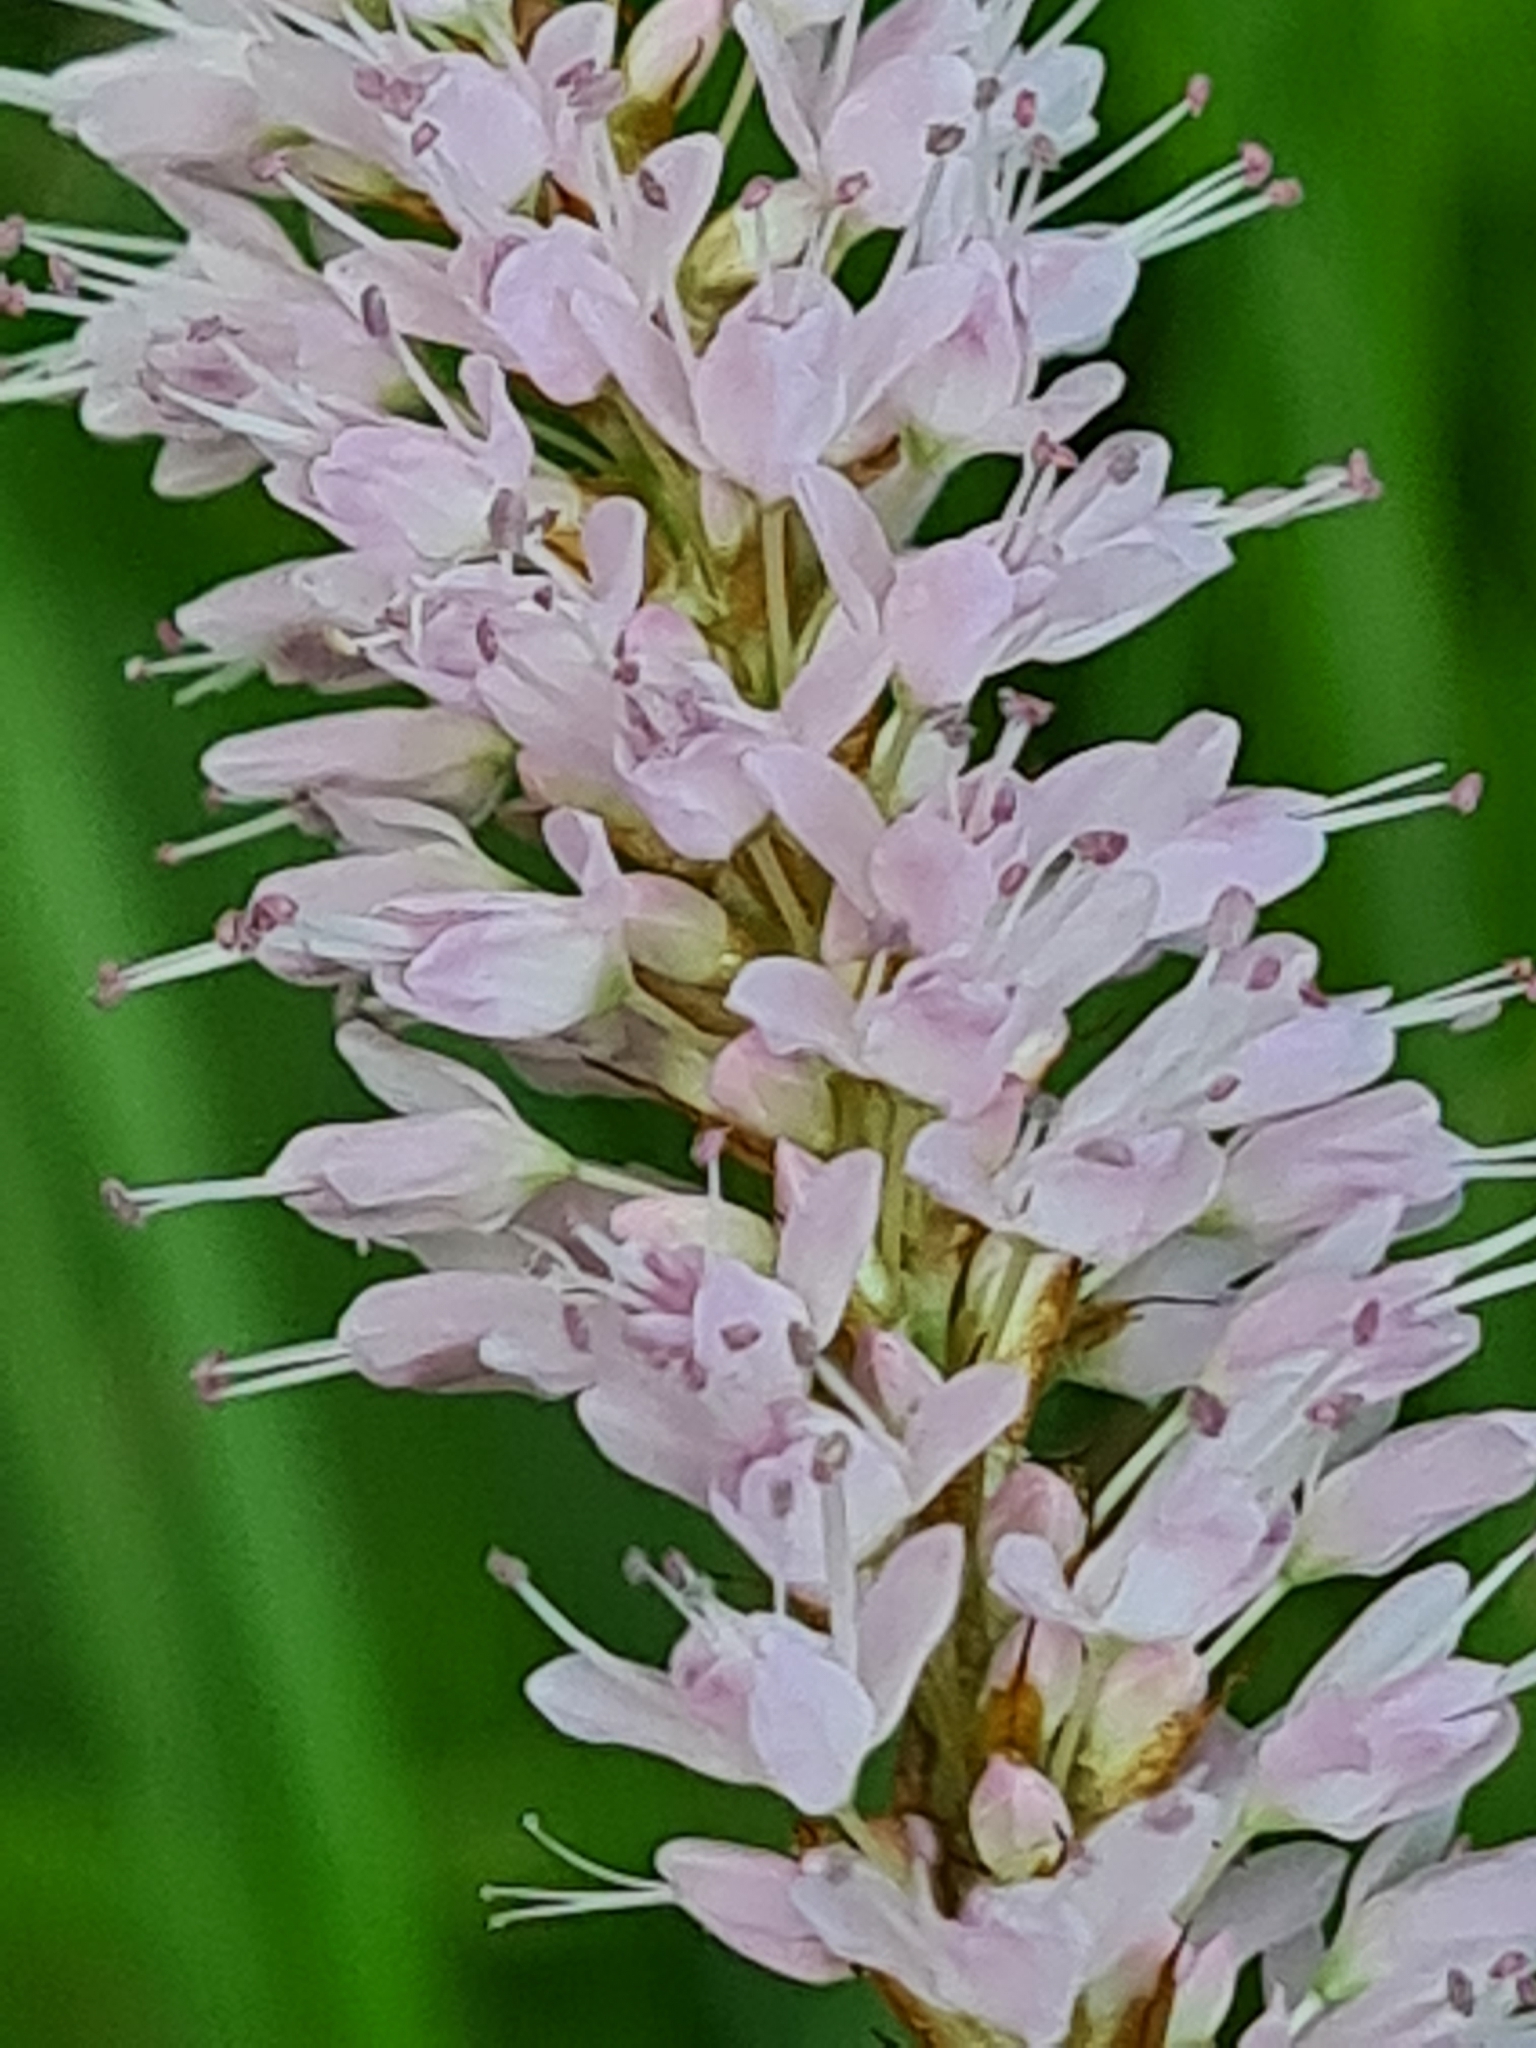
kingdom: Plantae
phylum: Tracheophyta
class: Magnoliopsida
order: Caryophyllales
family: Polygonaceae
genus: Bistorta
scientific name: Bistorta officinalis
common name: Common bistort
